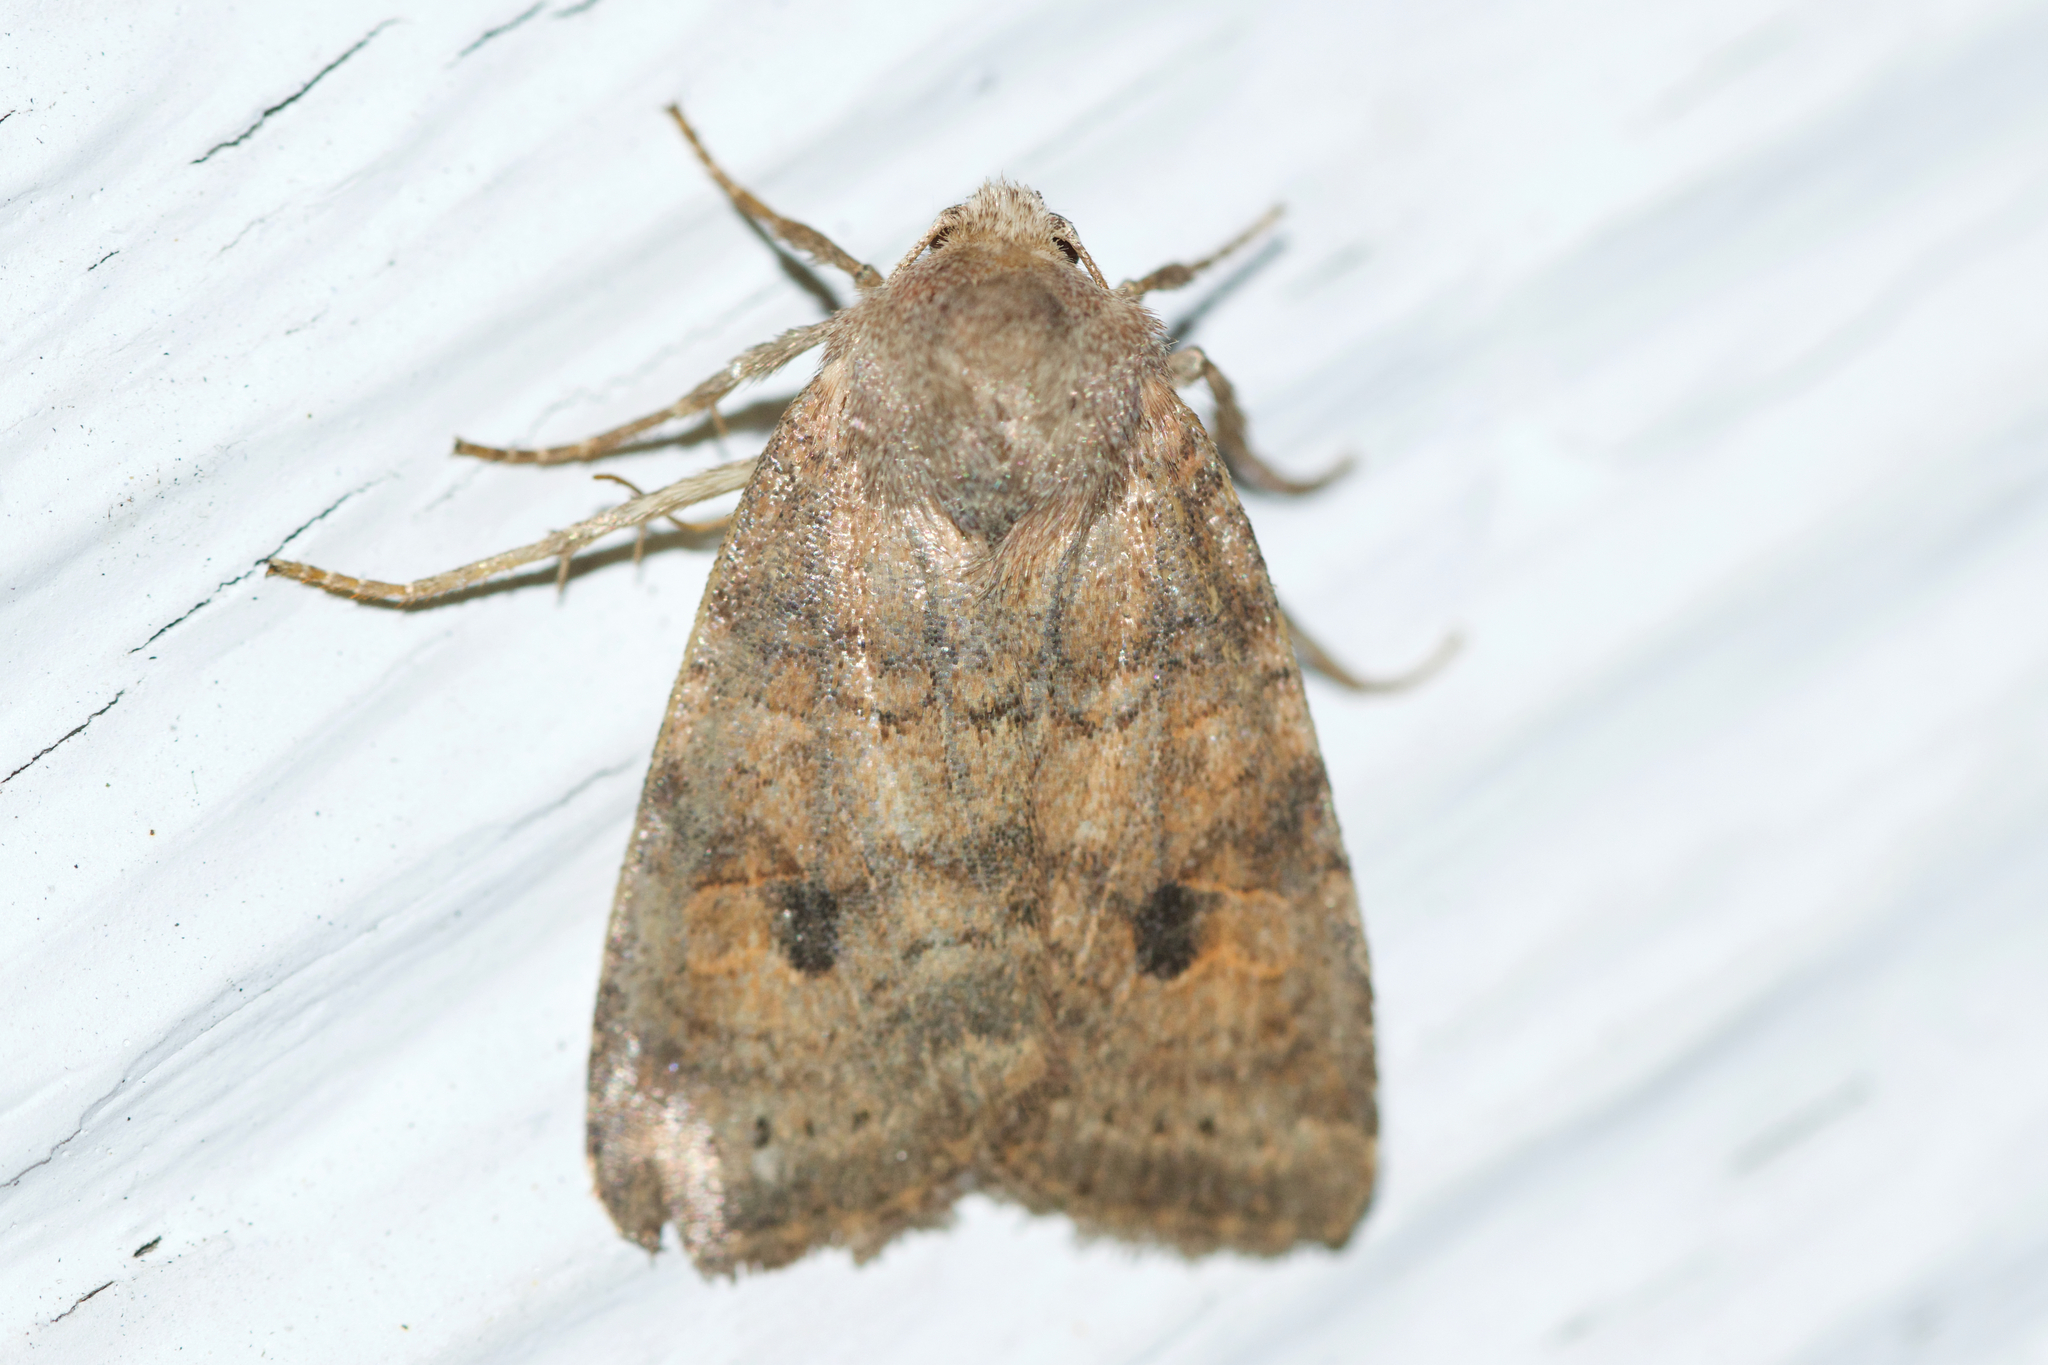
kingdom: Animalia
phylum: Arthropoda
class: Insecta
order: Lepidoptera
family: Noctuidae
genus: Anathix
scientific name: Anathix puta
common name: Puta sallow
